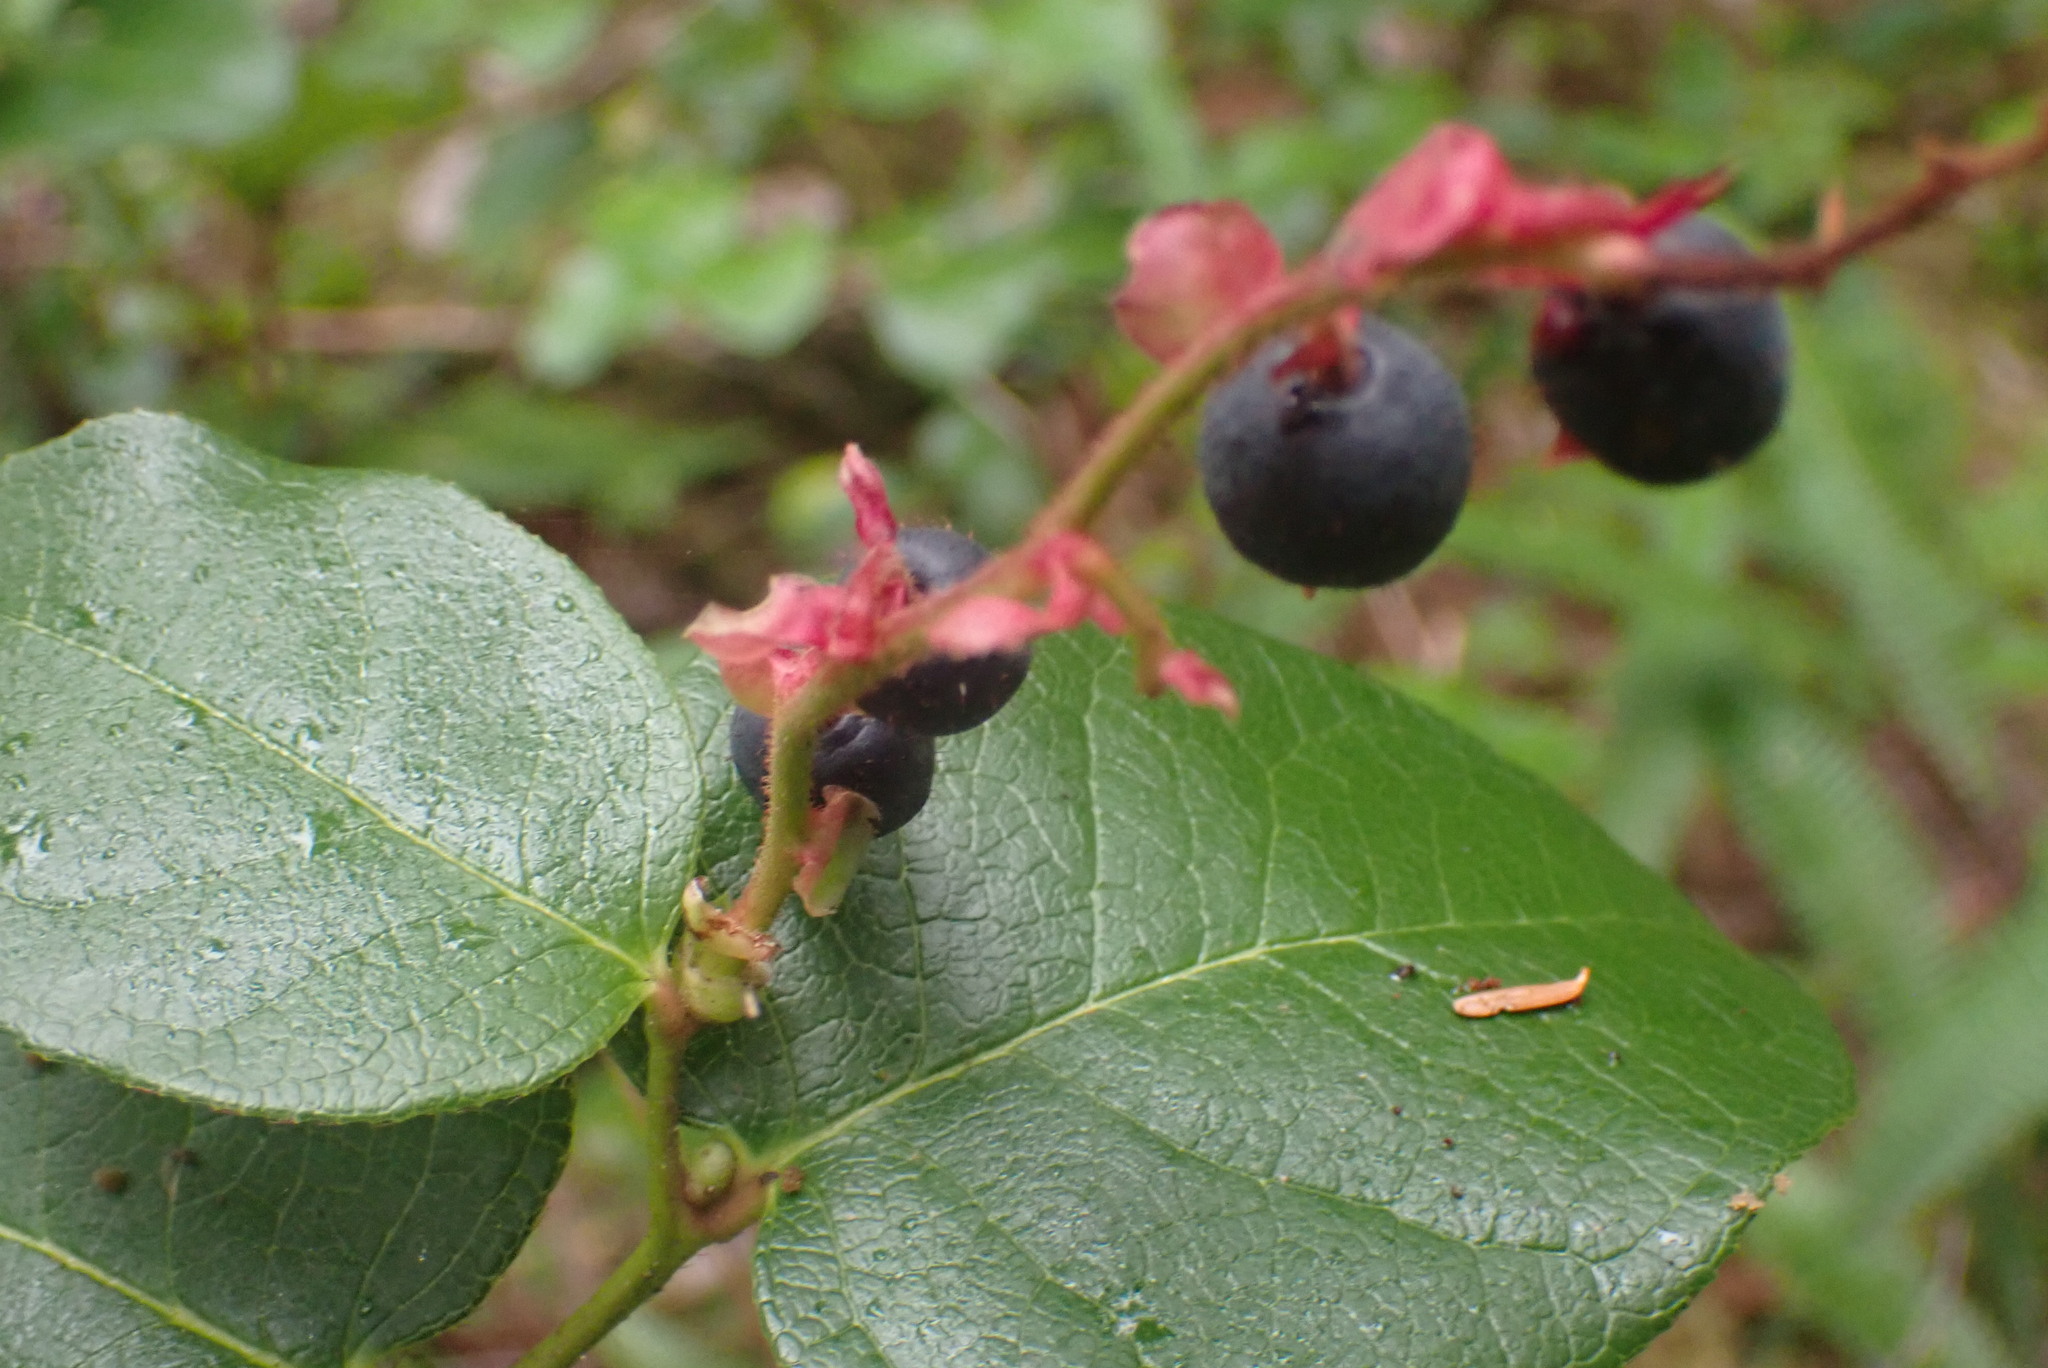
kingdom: Plantae
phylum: Tracheophyta
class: Magnoliopsida
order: Ericales
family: Ericaceae
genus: Gaultheria
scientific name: Gaultheria shallon
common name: Shallon
